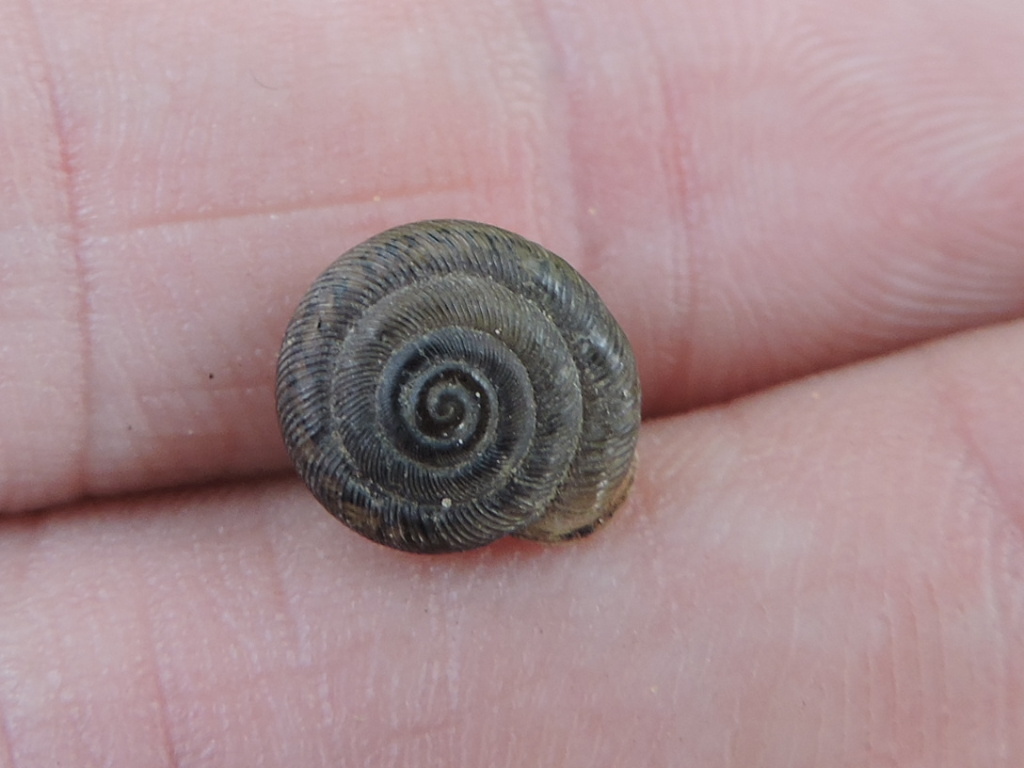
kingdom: Animalia
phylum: Mollusca
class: Gastropoda
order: Stylommatophora
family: Polygyridae
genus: Triodopsis
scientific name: Triodopsis vultuosa
